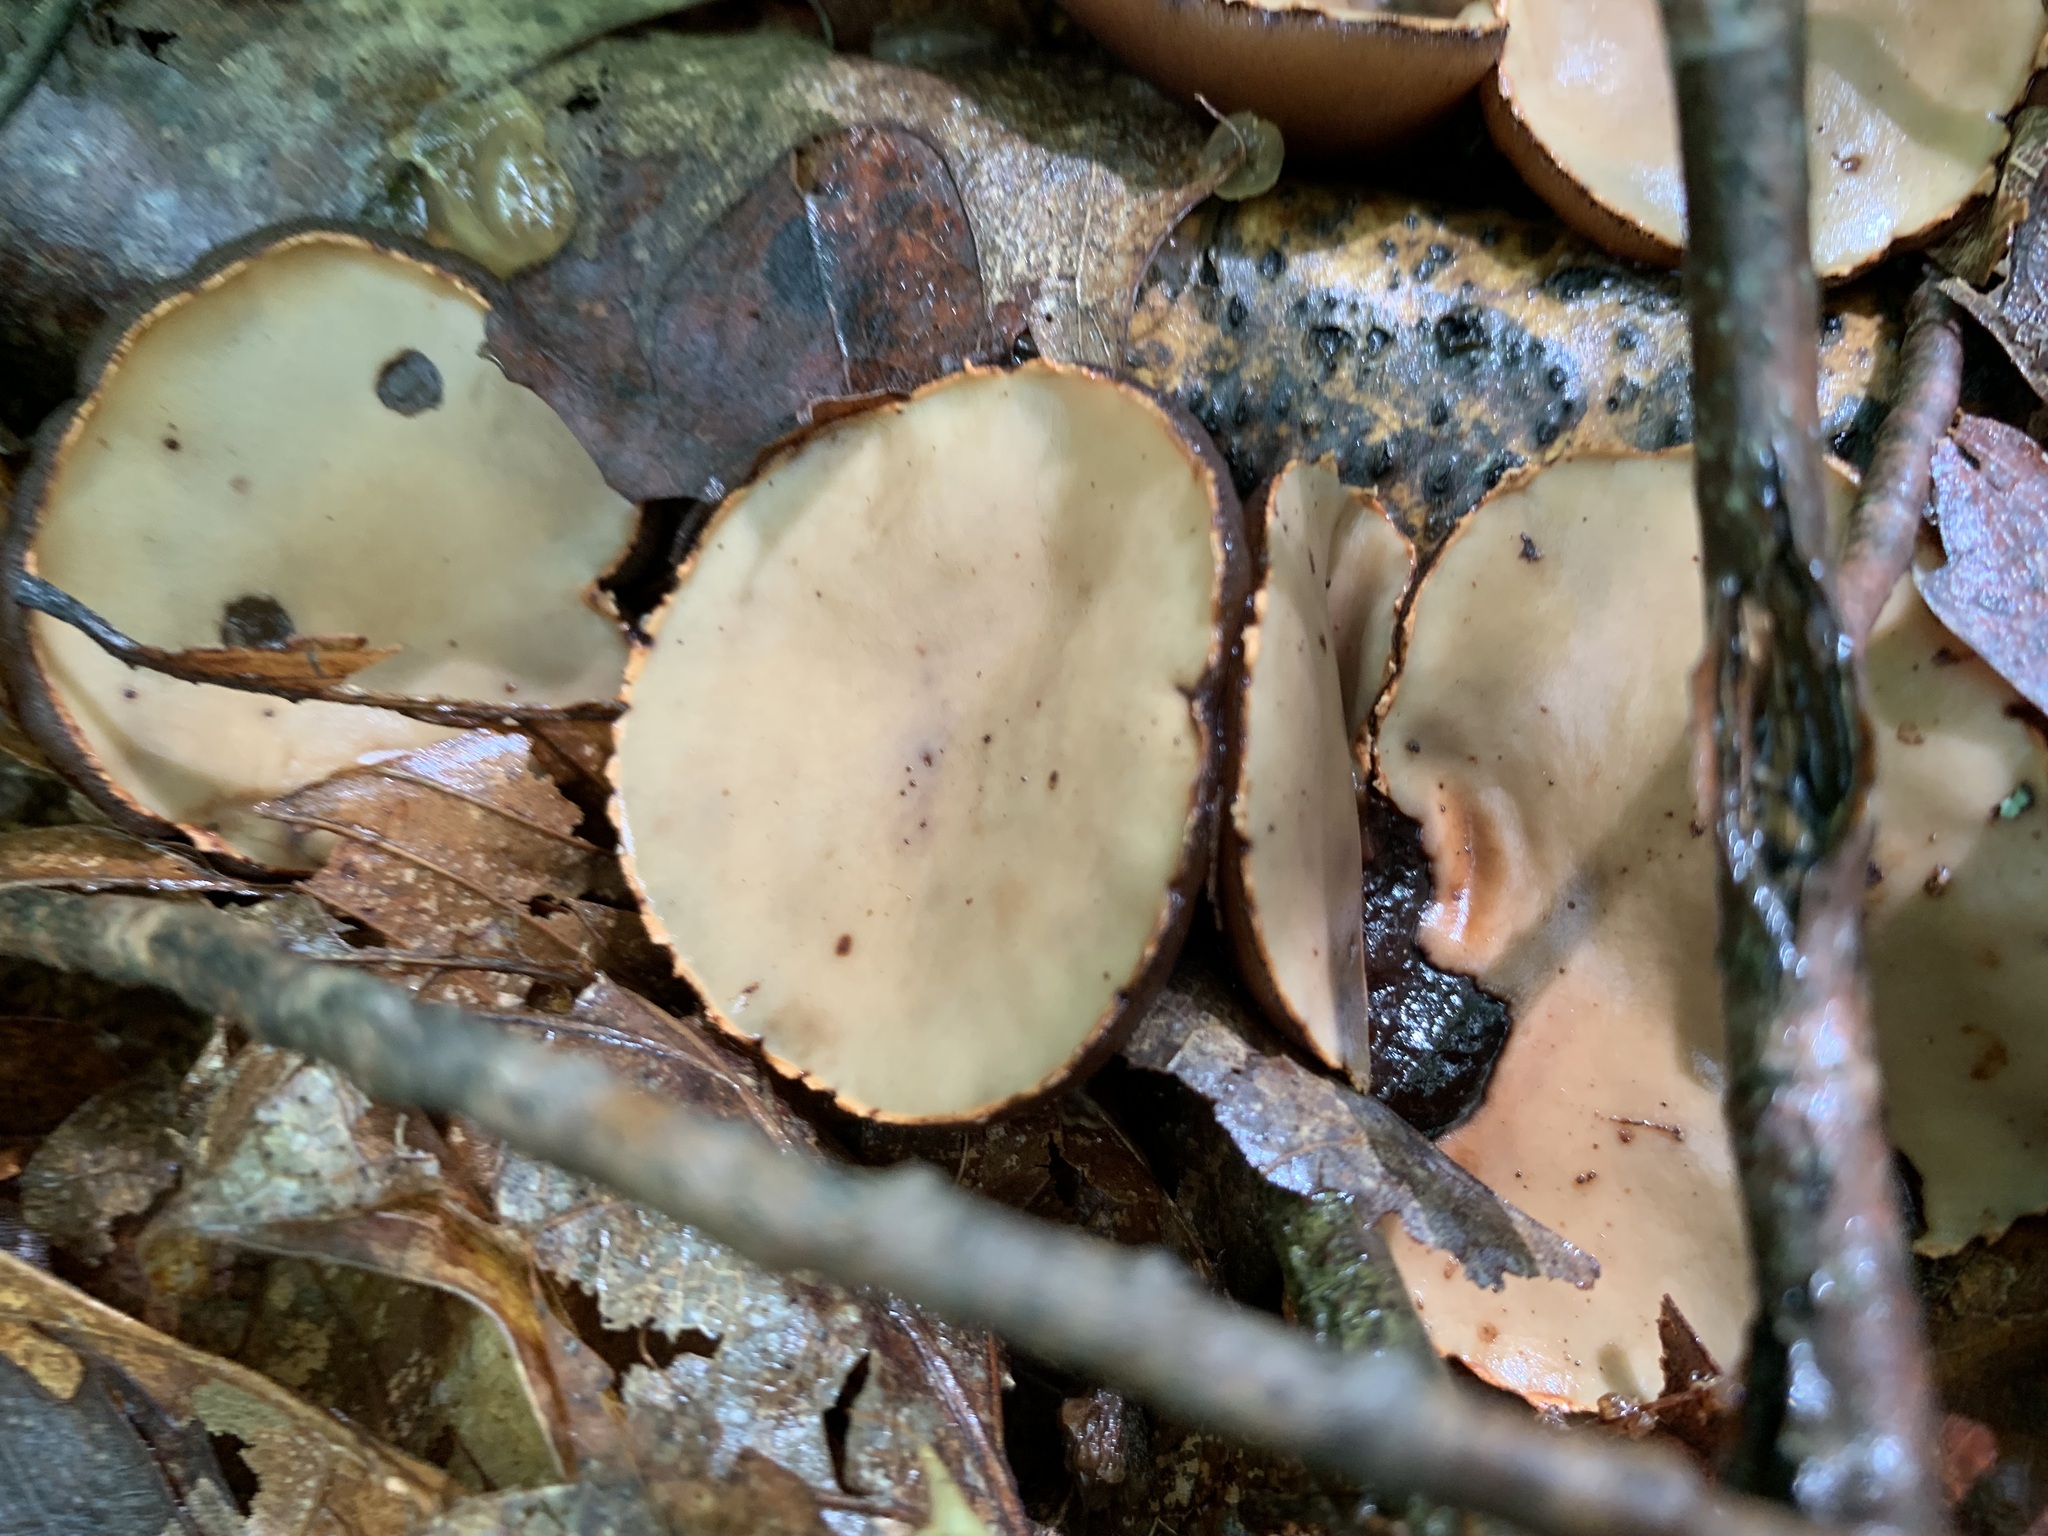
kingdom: Fungi
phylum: Ascomycota
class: Pezizomycetes
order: Pezizales
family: Sarcosomataceae
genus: Galiella
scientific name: Galiella rufa
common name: Hairy rubber cup
